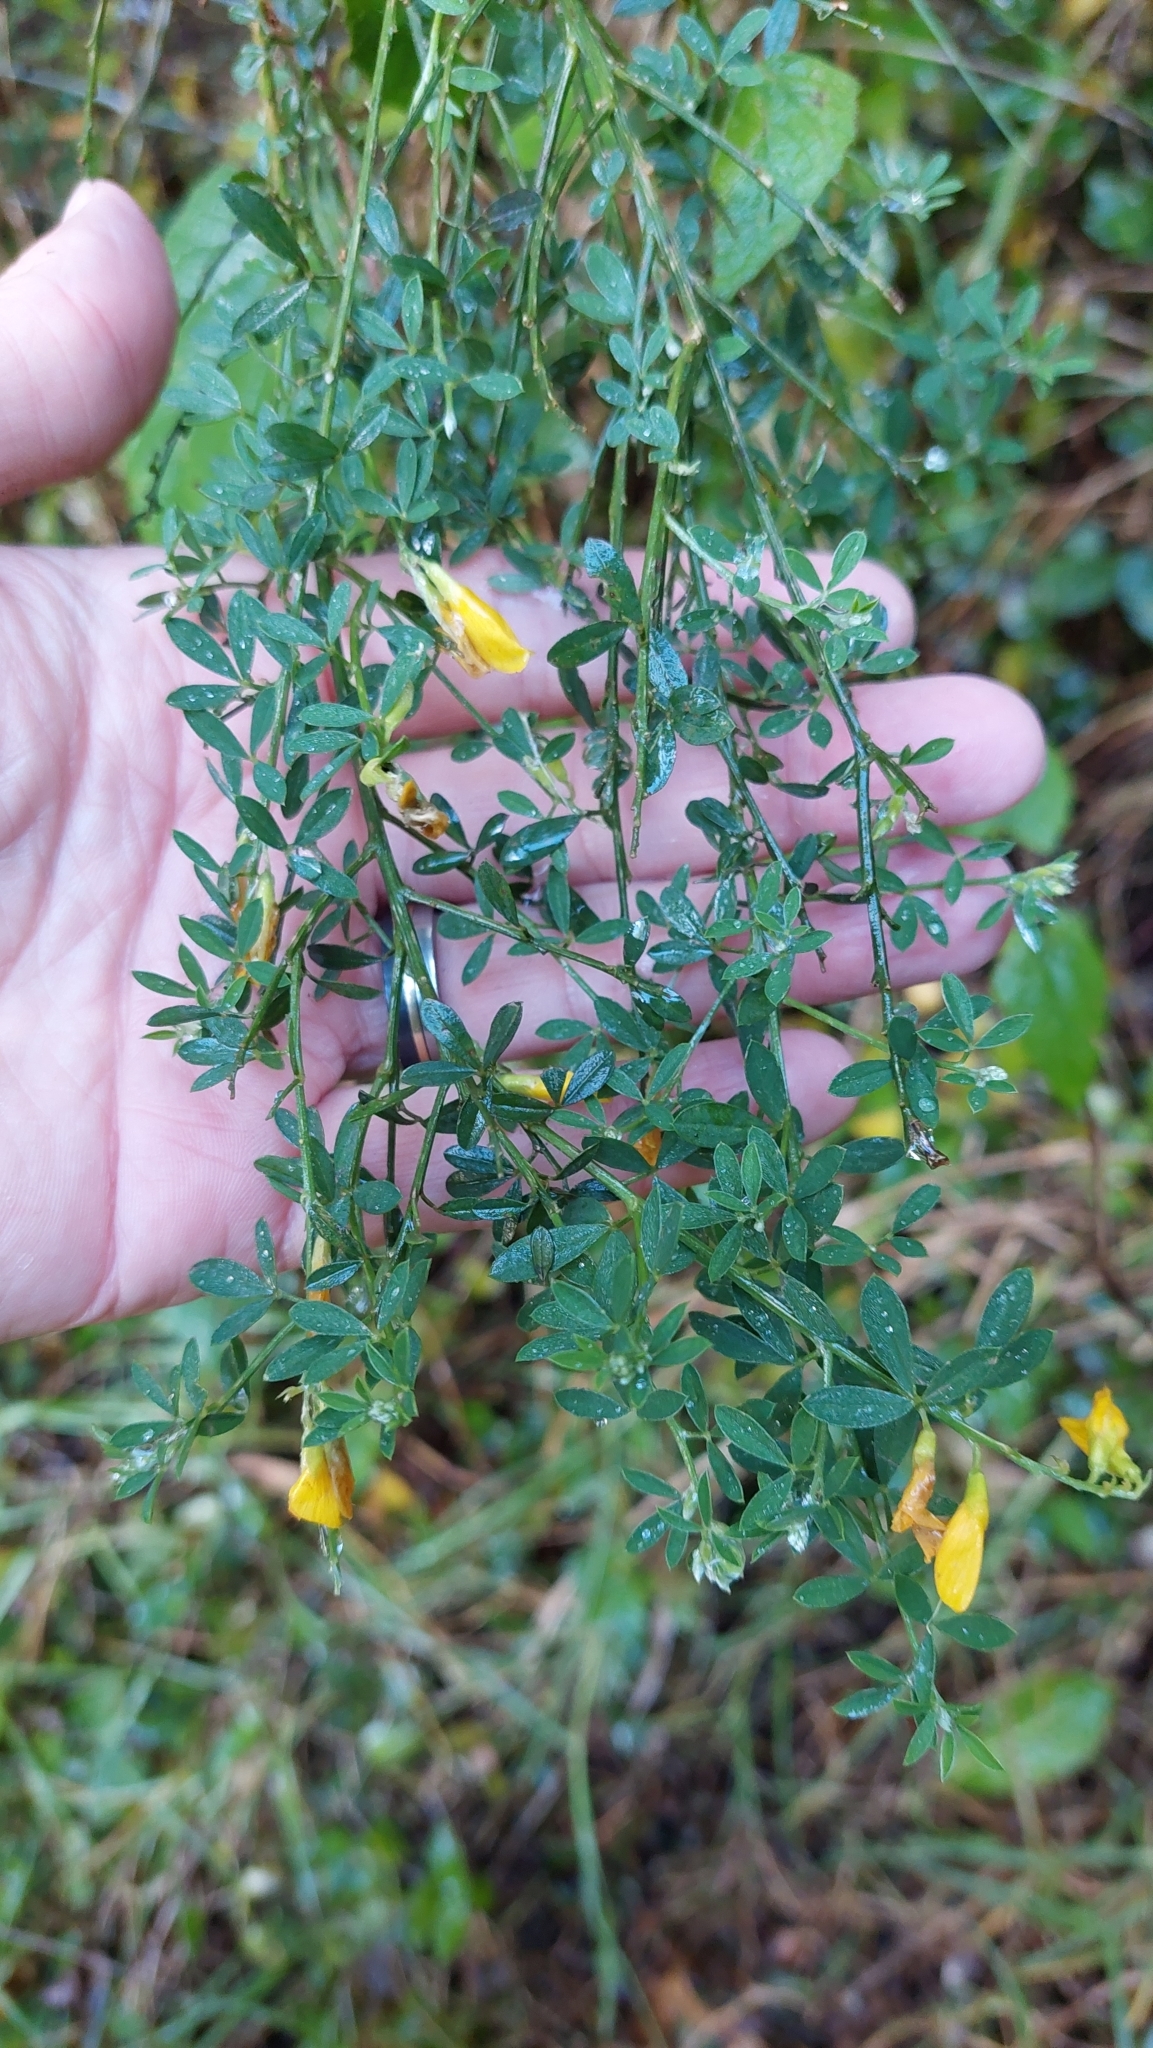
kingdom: Plantae
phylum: Tracheophyta
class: Magnoliopsida
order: Fabales
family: Fabaceae
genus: Genista
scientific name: Genista monspessulana
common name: Montpellier broom
